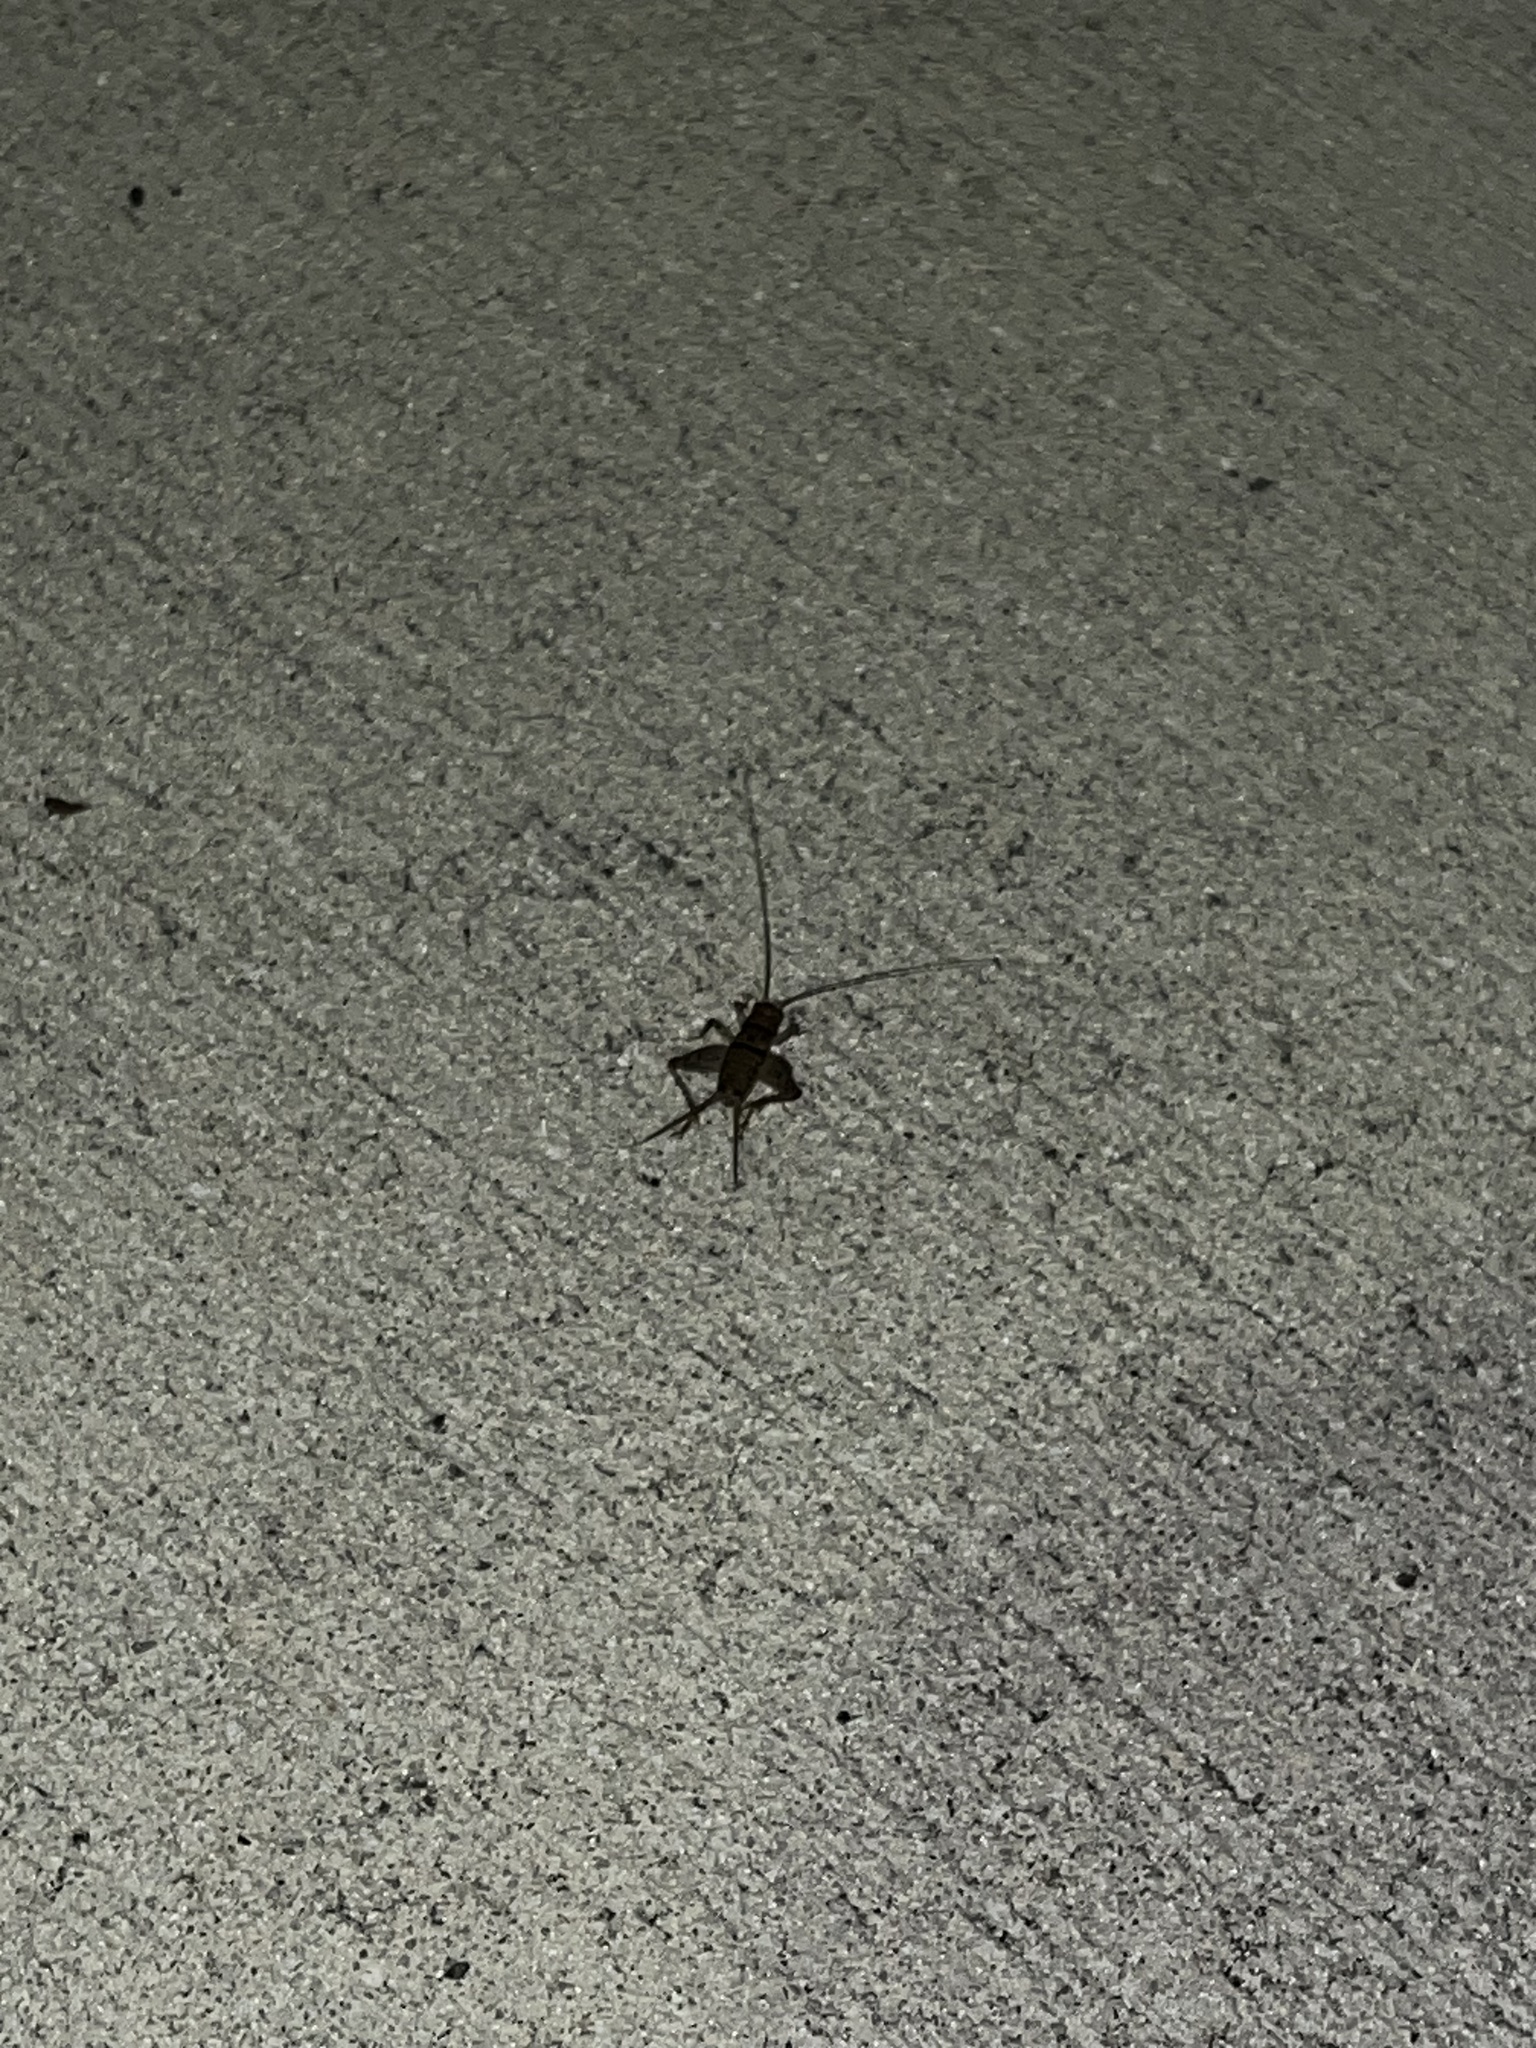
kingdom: Animalia
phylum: Arthropoda
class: Insecta
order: Orthoptera
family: Gryllidae
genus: Gryllodes
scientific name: Gryllodes sigillatus
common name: Tropical house cricket
